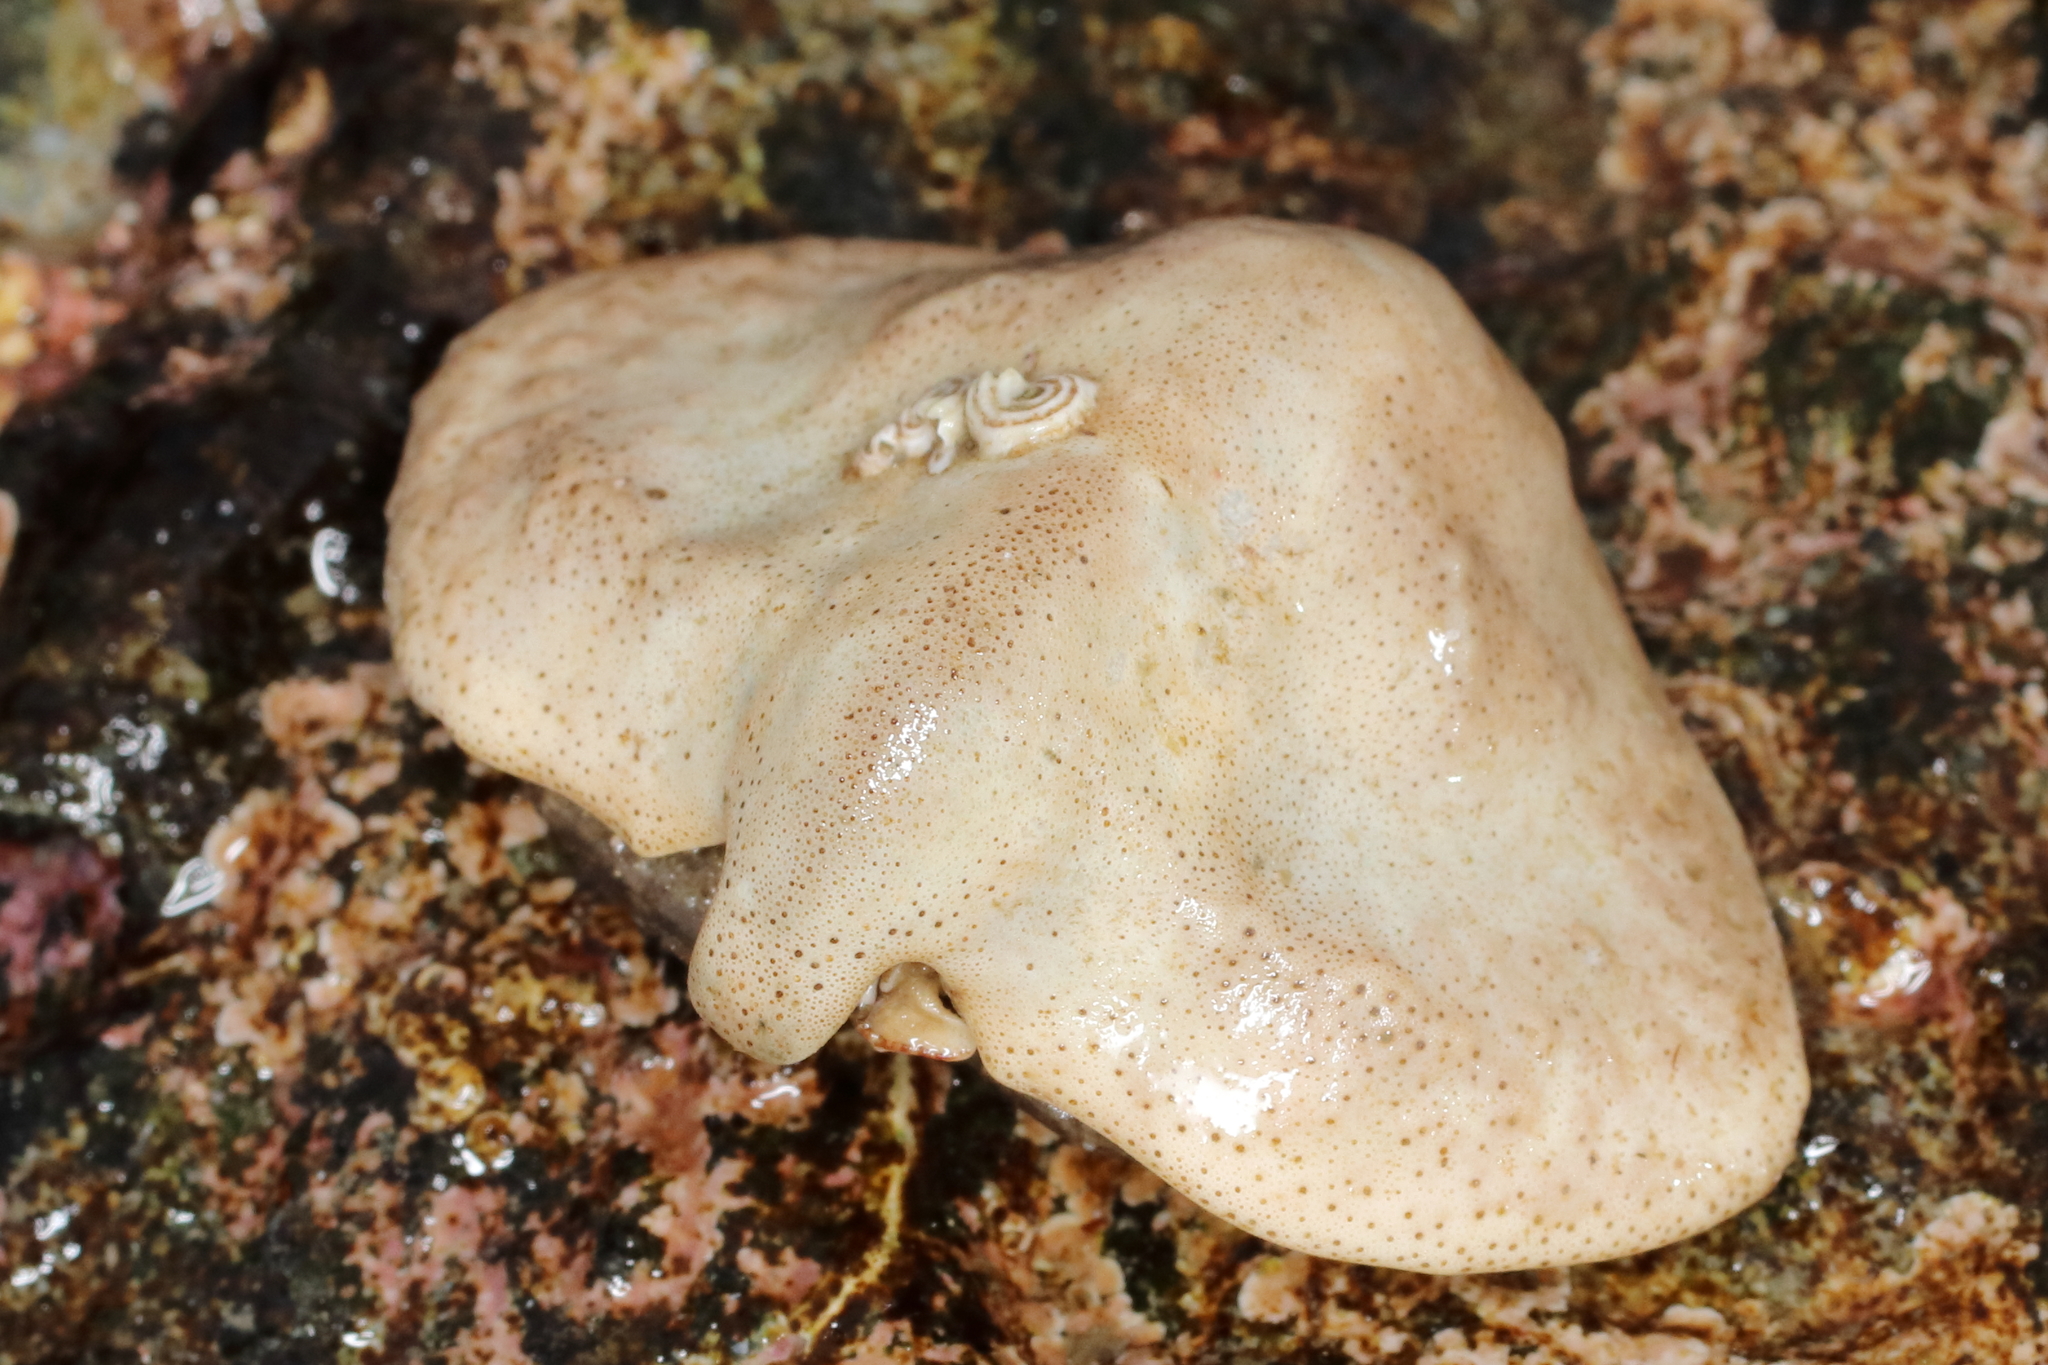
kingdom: Animalia
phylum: Arthropoda
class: Malacostraca
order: Decapoda
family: Lithodidae
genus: Cryptolithodes
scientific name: Cryptolithodes typicus
